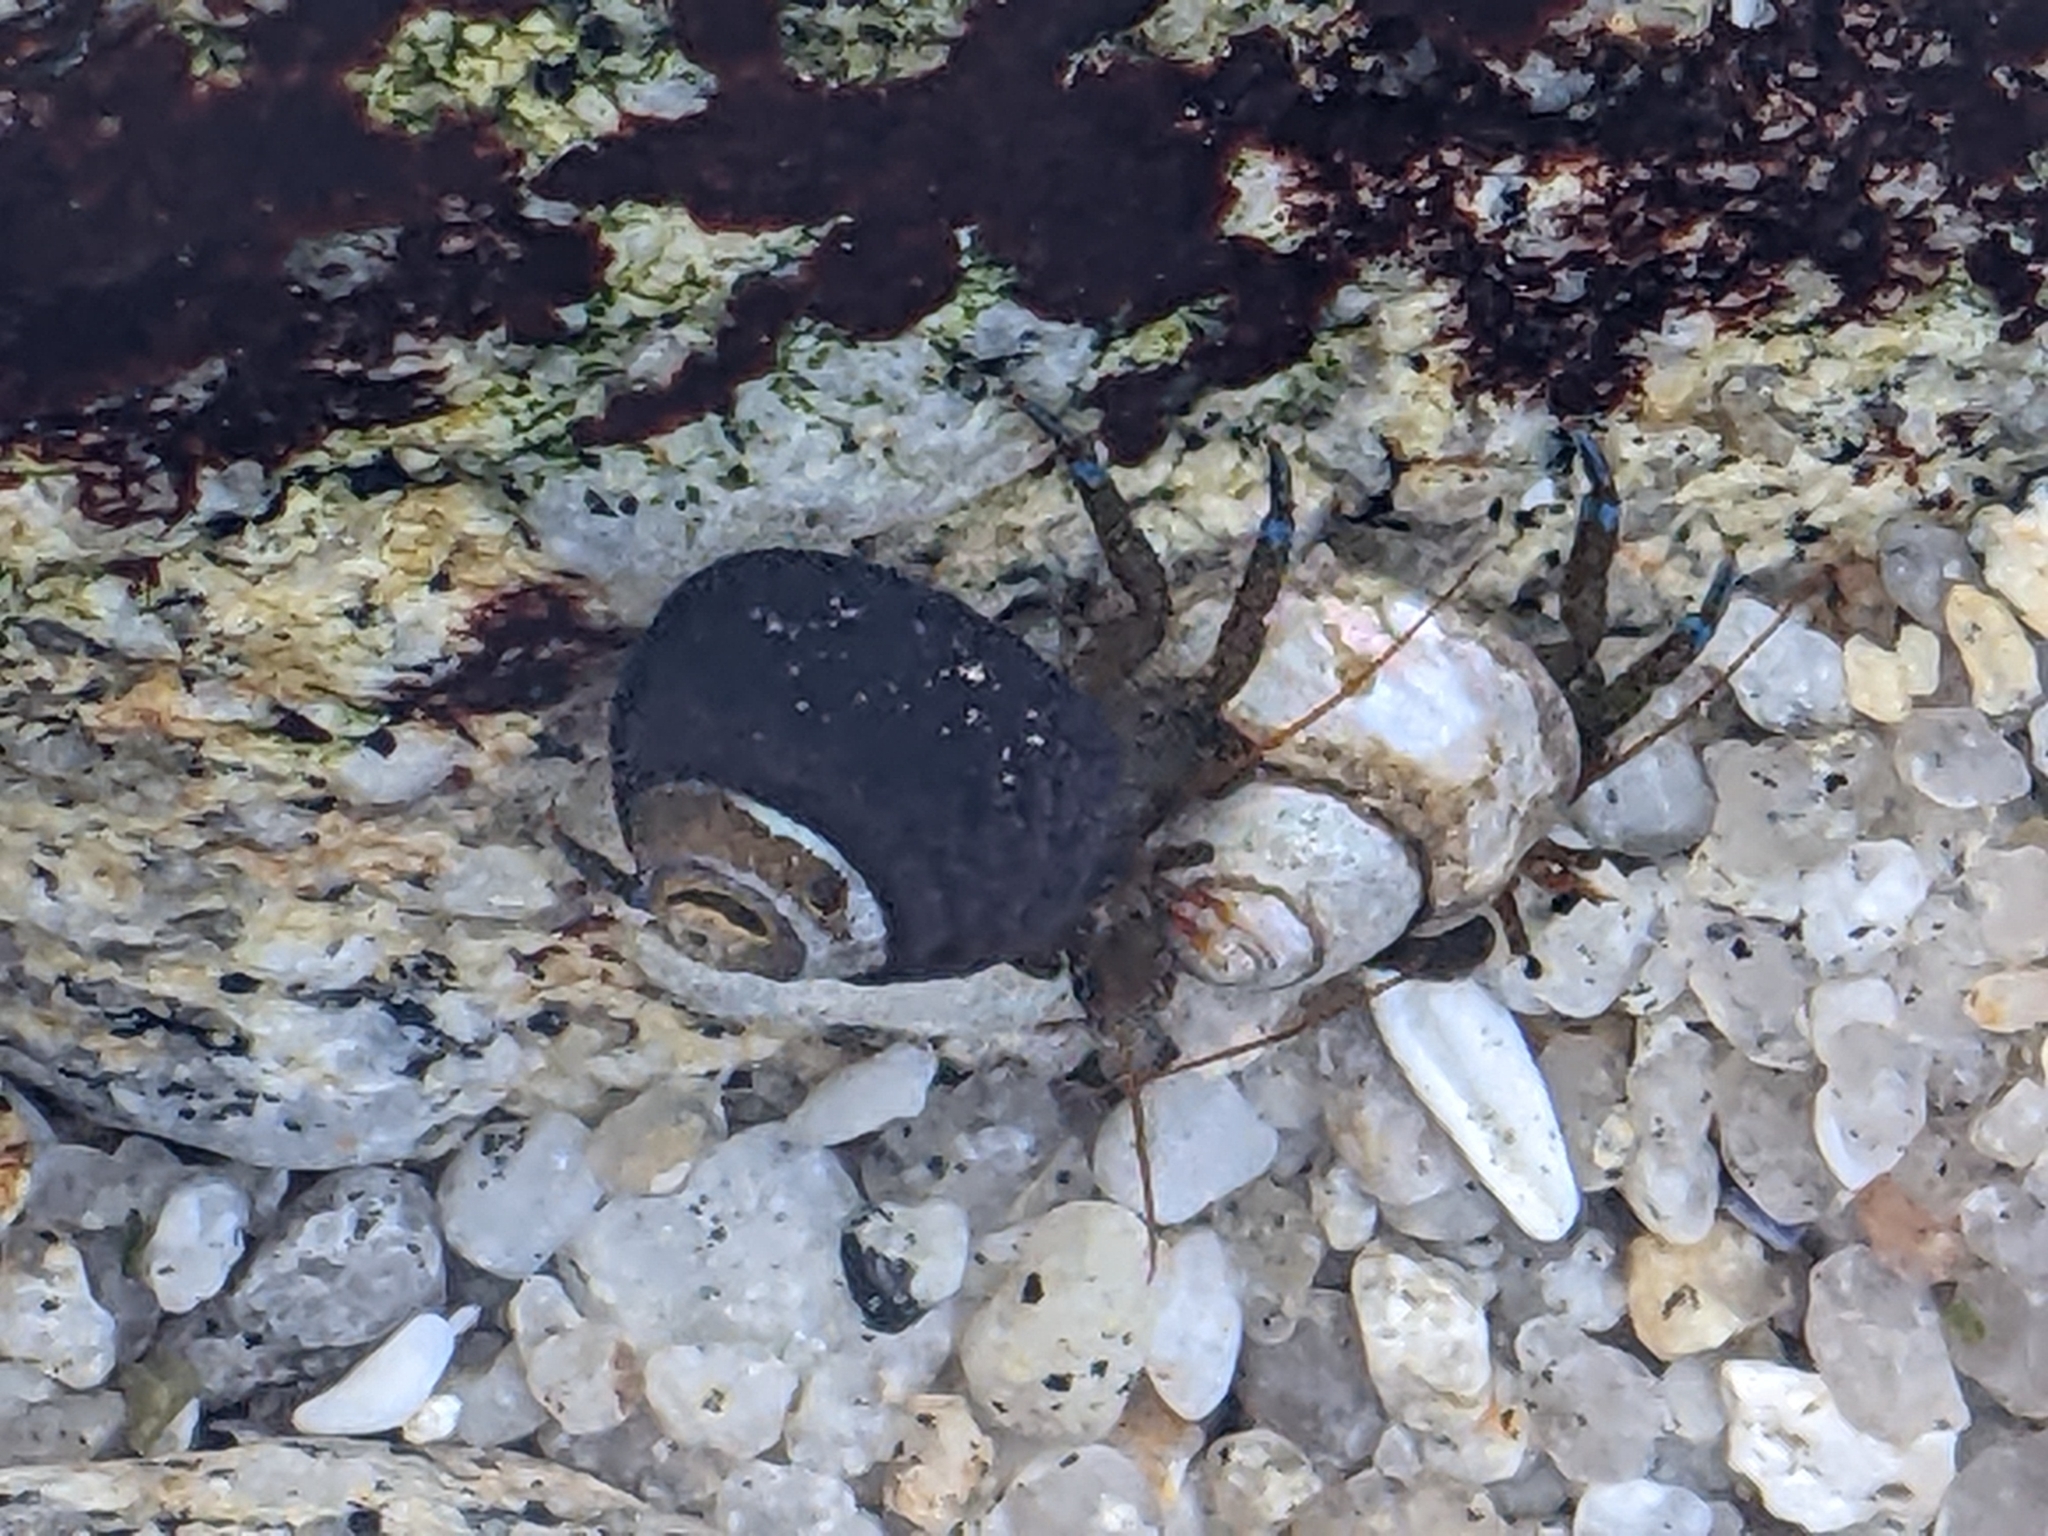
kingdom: Animalia
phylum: Arthropoda
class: Malacostraca
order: Decapoda
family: Paguridae
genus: Pagurus
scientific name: Pagurus samuelis
